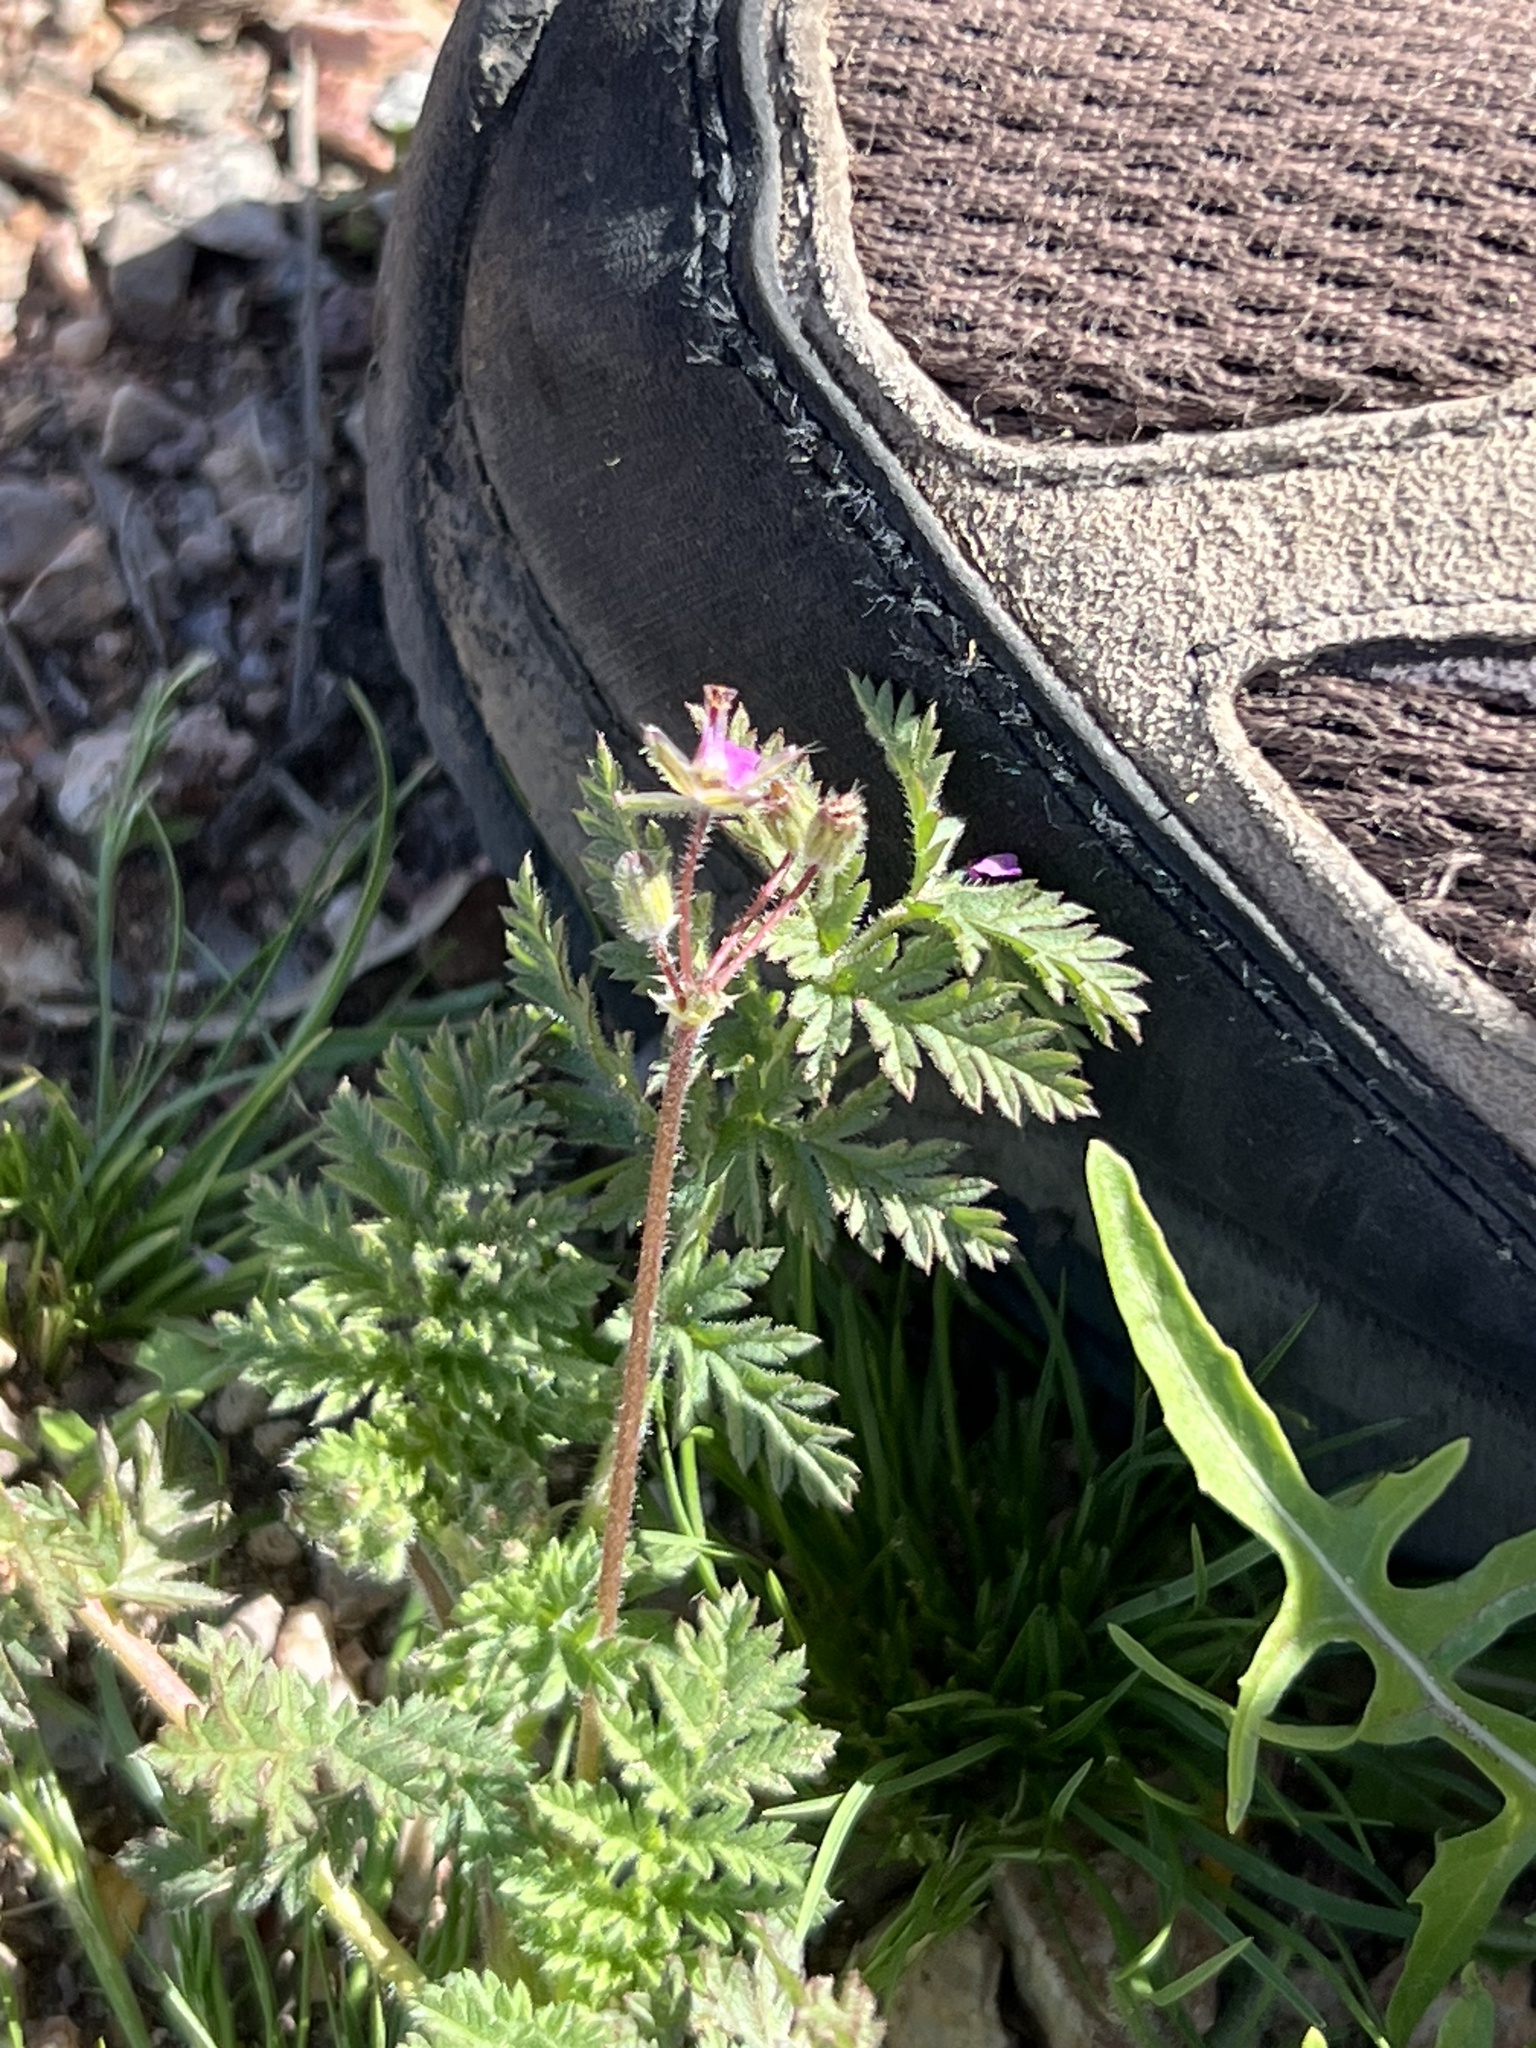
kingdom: Plantae
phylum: Tracheophyta
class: Magnoliopsida
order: Geraniales
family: Geraniaceae
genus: Erodium
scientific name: Erodium cicutarium
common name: Common stork's-bill
